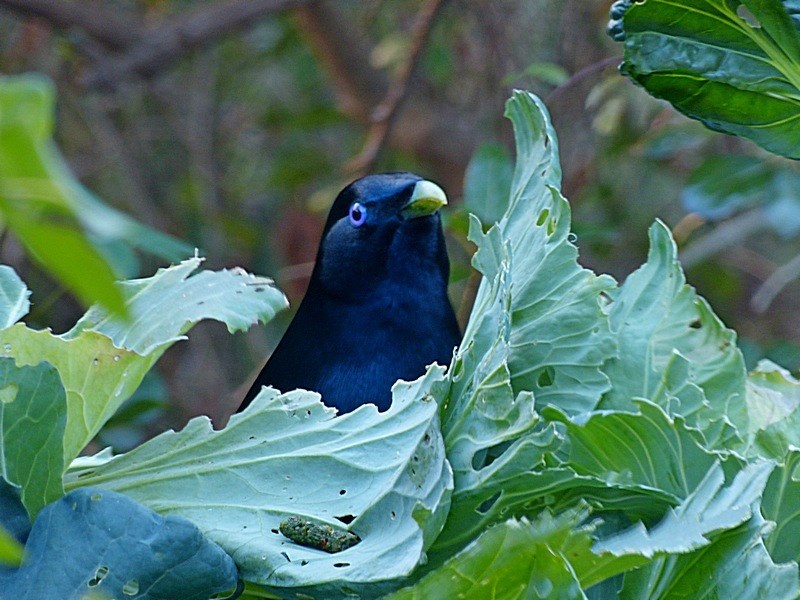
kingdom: Animalia
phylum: Chordata
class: Aves
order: Passeriformes
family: Ptilonorhynchidae
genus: Ptilonorhynchus
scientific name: Ptilonorhynchus violaceus
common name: Satin bowerbird
